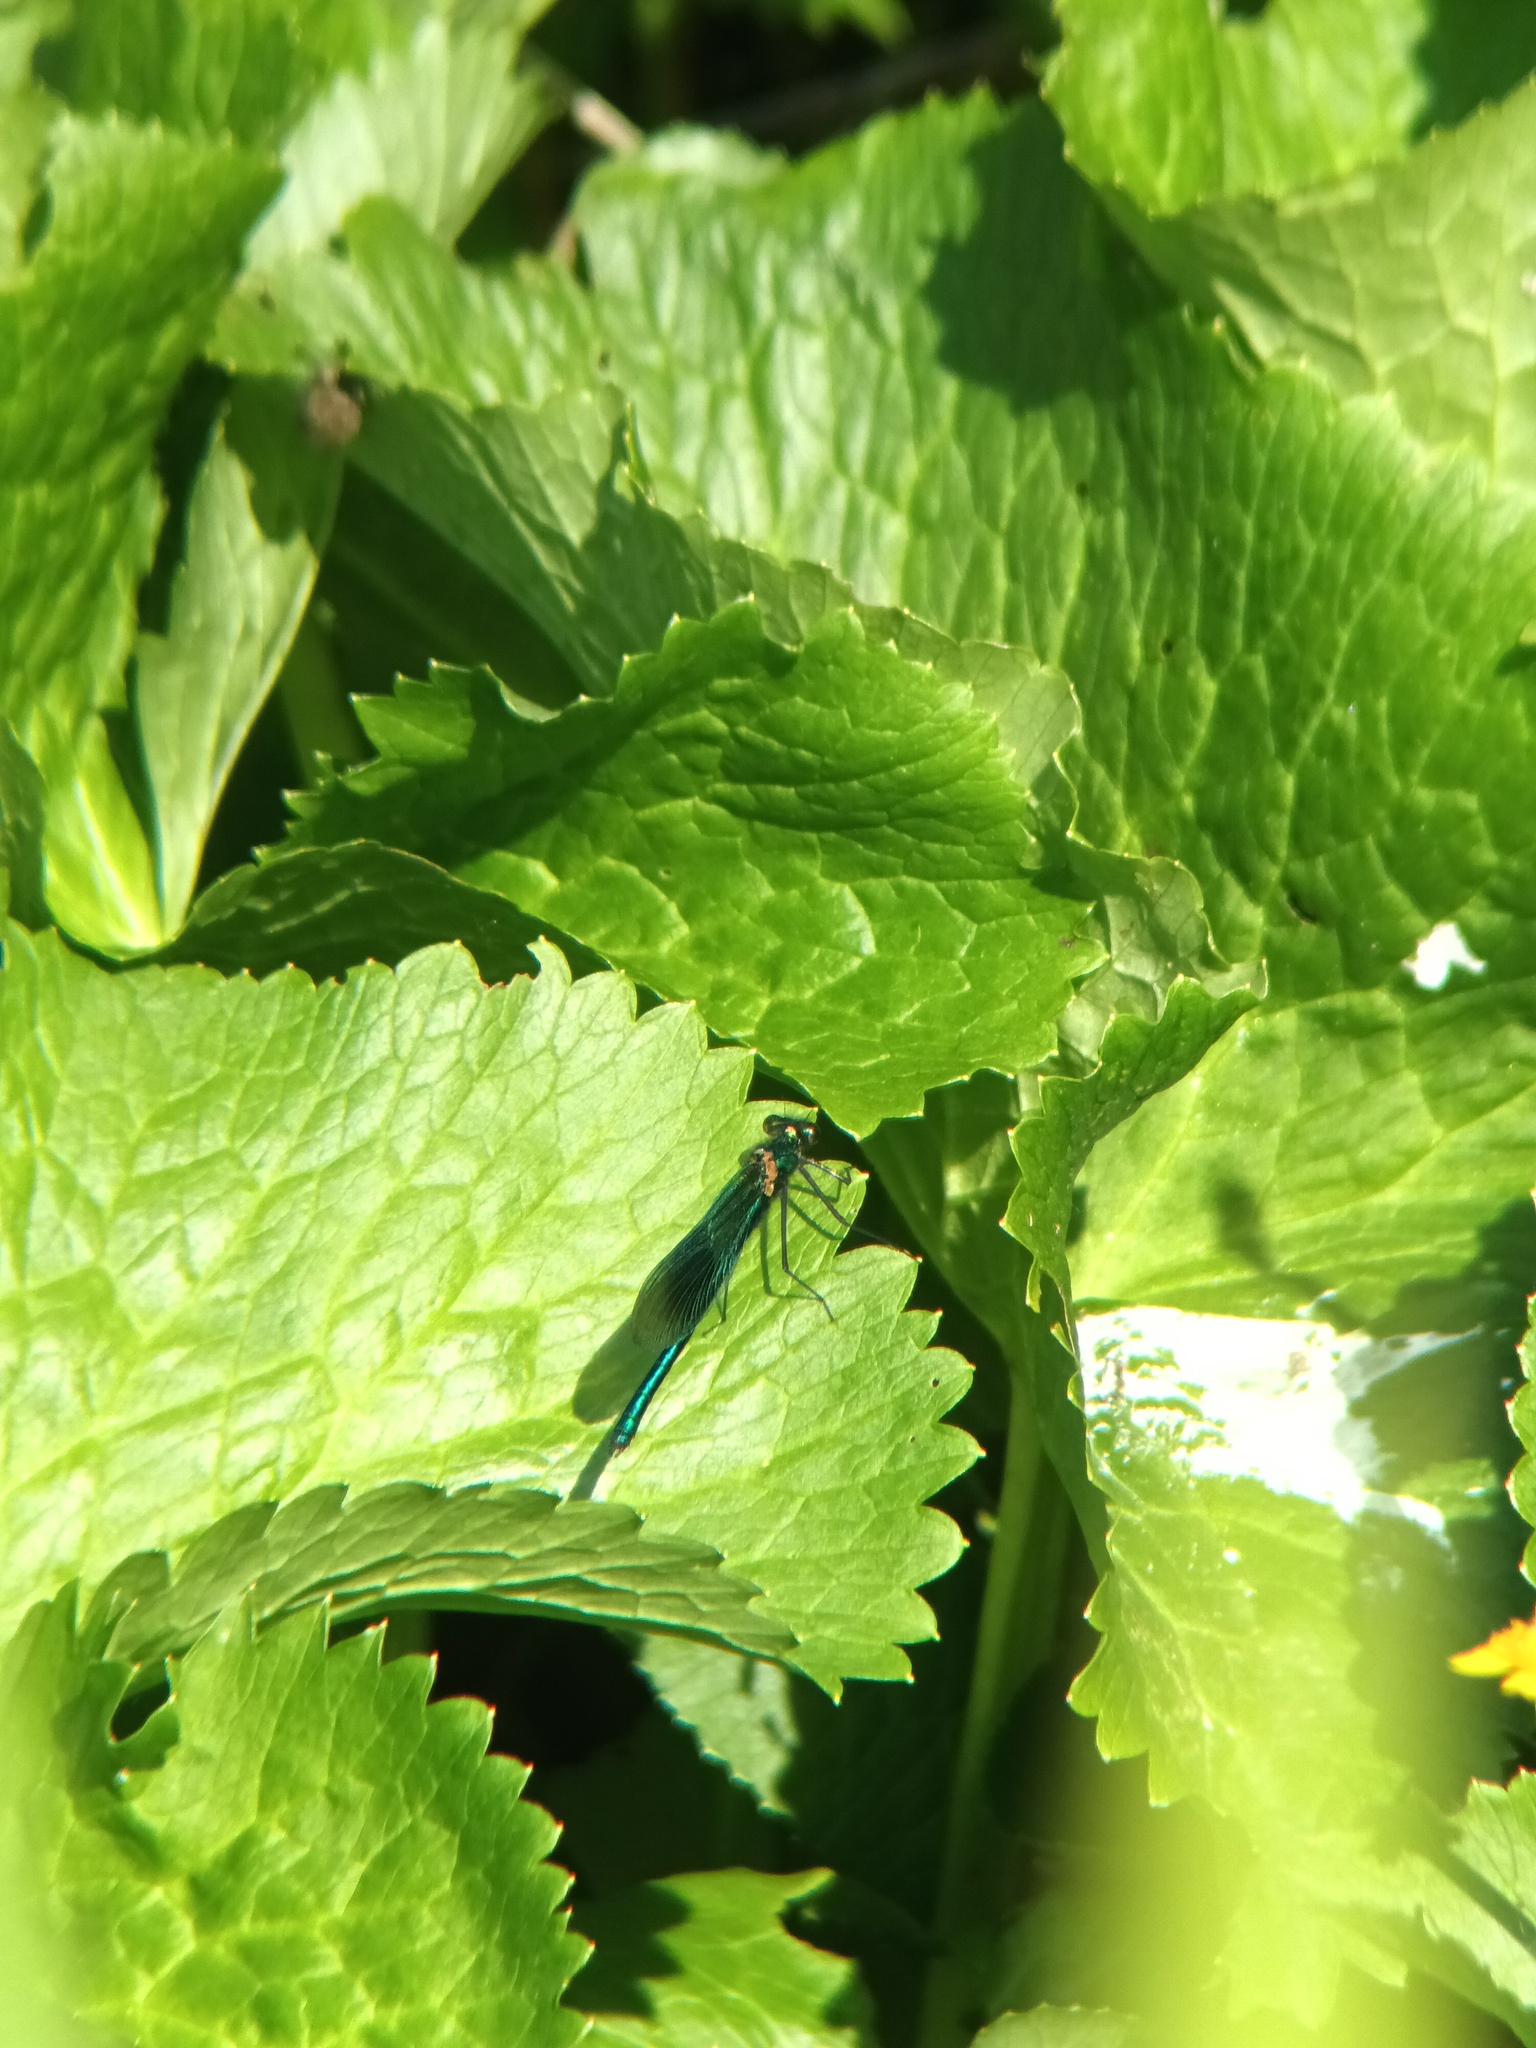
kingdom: Animalia
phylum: Arthropoda
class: Insecta
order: Odonata
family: Calopterygidae
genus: Calopteryx
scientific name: Calopteryx splendens
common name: Banded demoiselle
